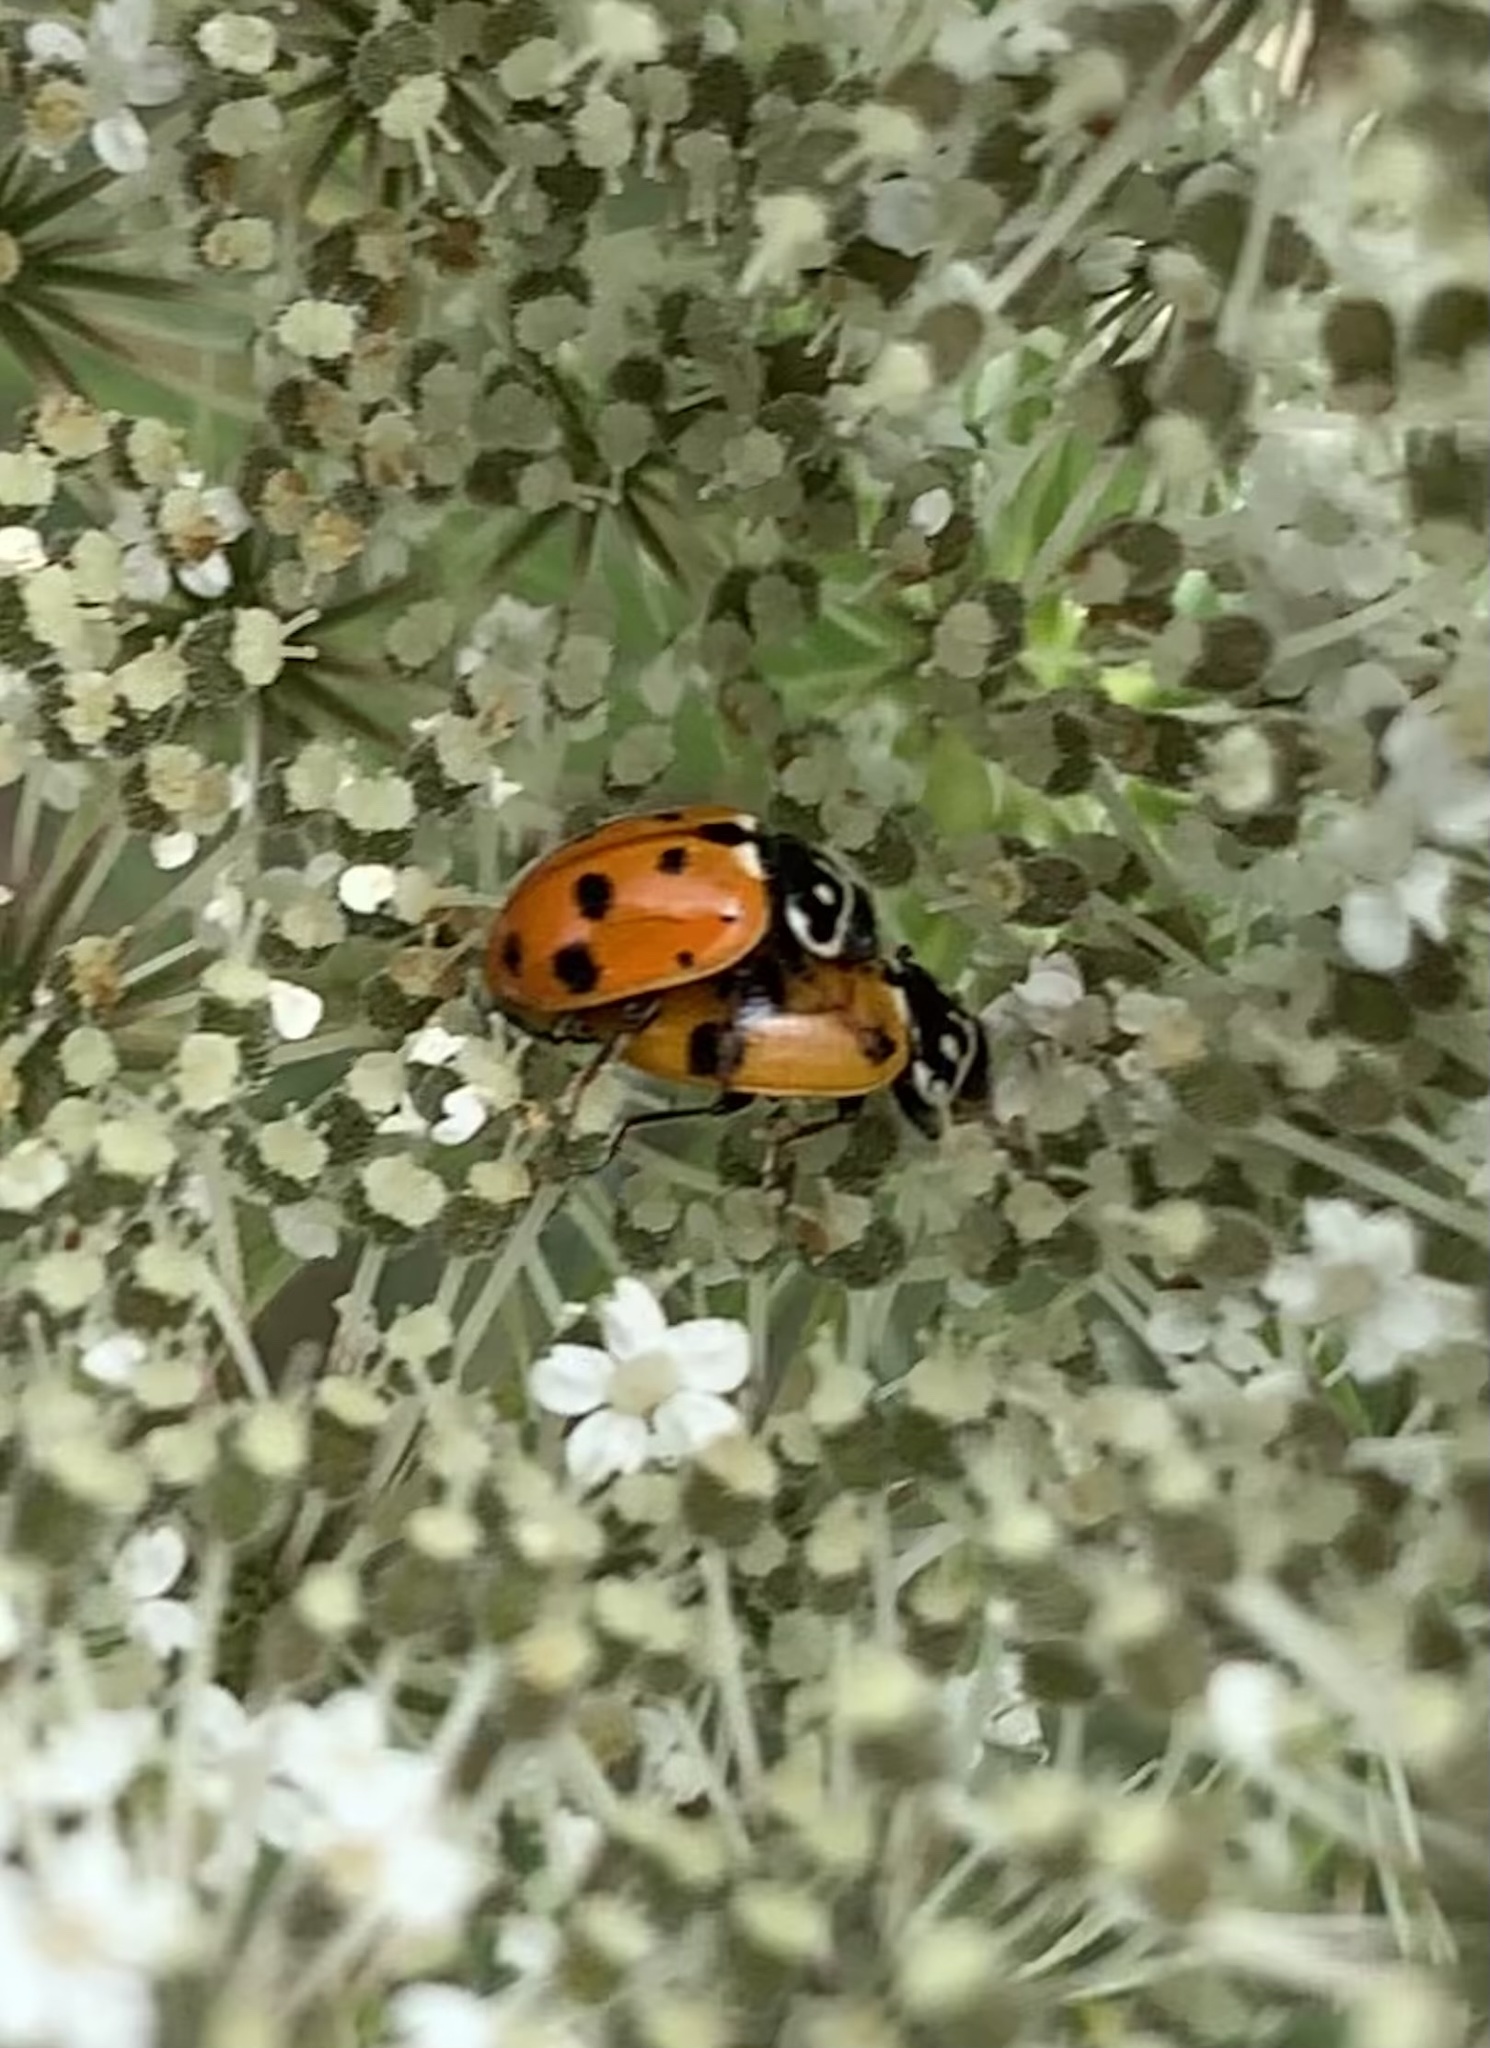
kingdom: Animalia
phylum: Arthropoda
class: Insecta
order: Coleoptera
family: Coccinellidae
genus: Hippodamia
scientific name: Hippodamia variegata
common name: Ladybird beetle
